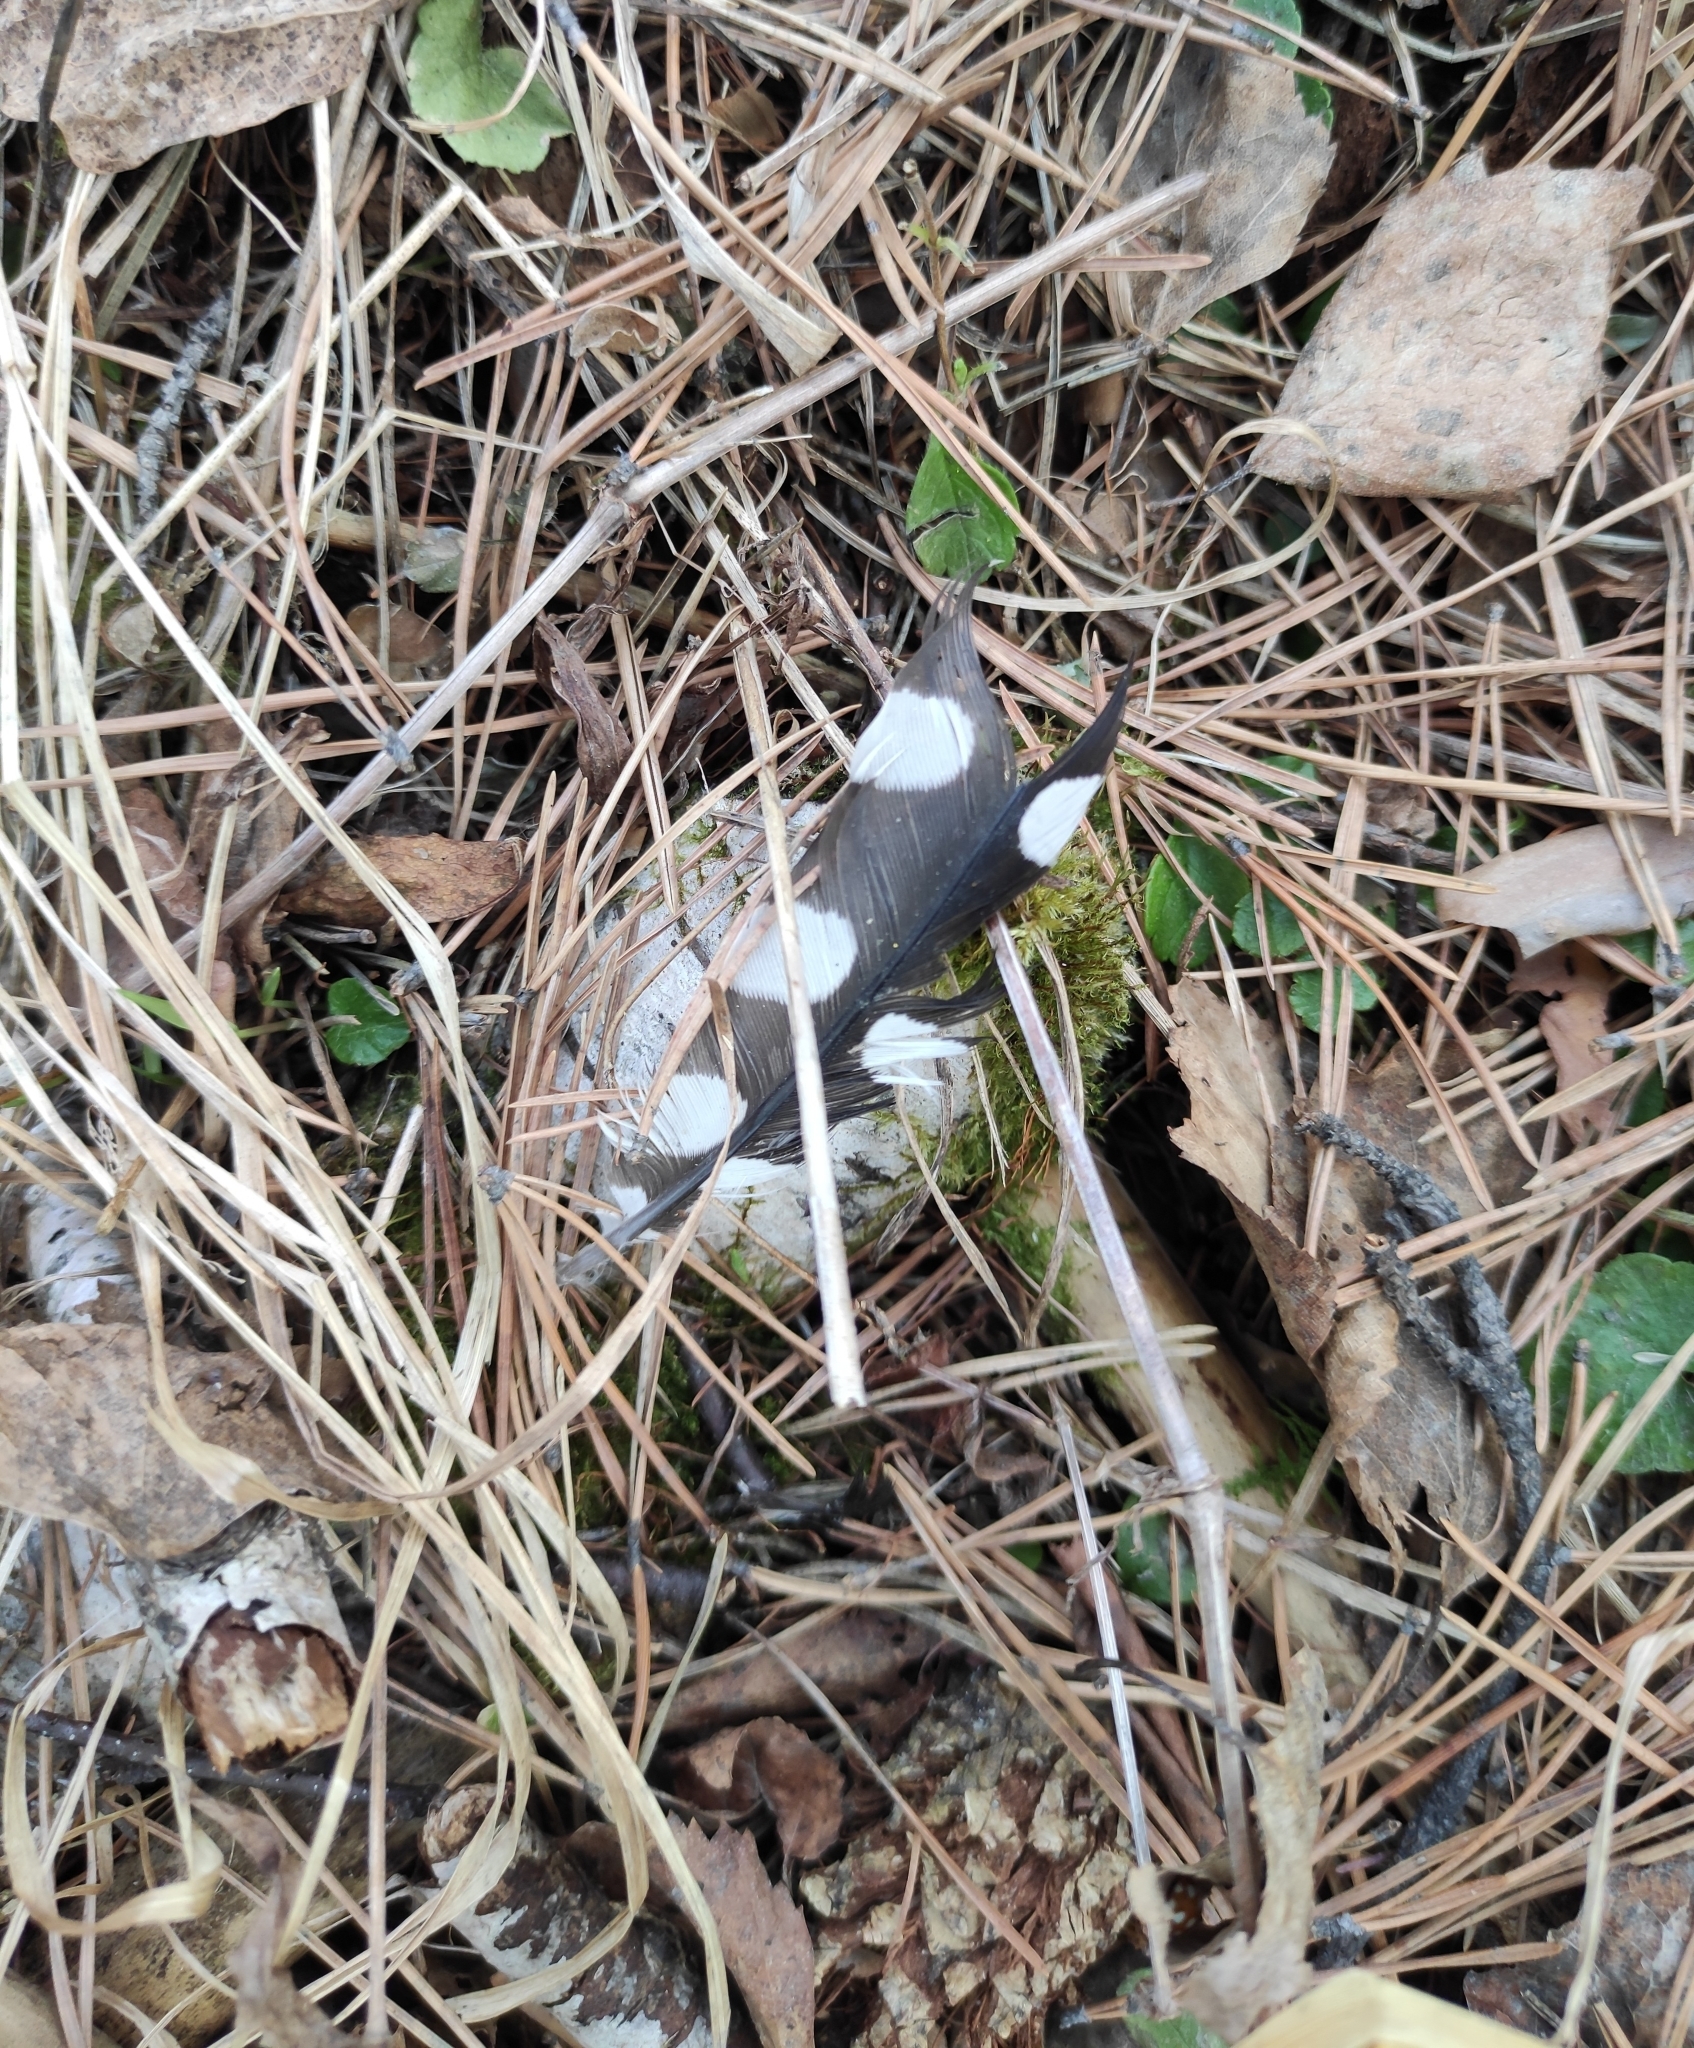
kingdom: Animalia
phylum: Chordata
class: Aves
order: Piciformes
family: Picidae
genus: Dendrocopos
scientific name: Dendrocopos major
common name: Great spotted woodpecker
